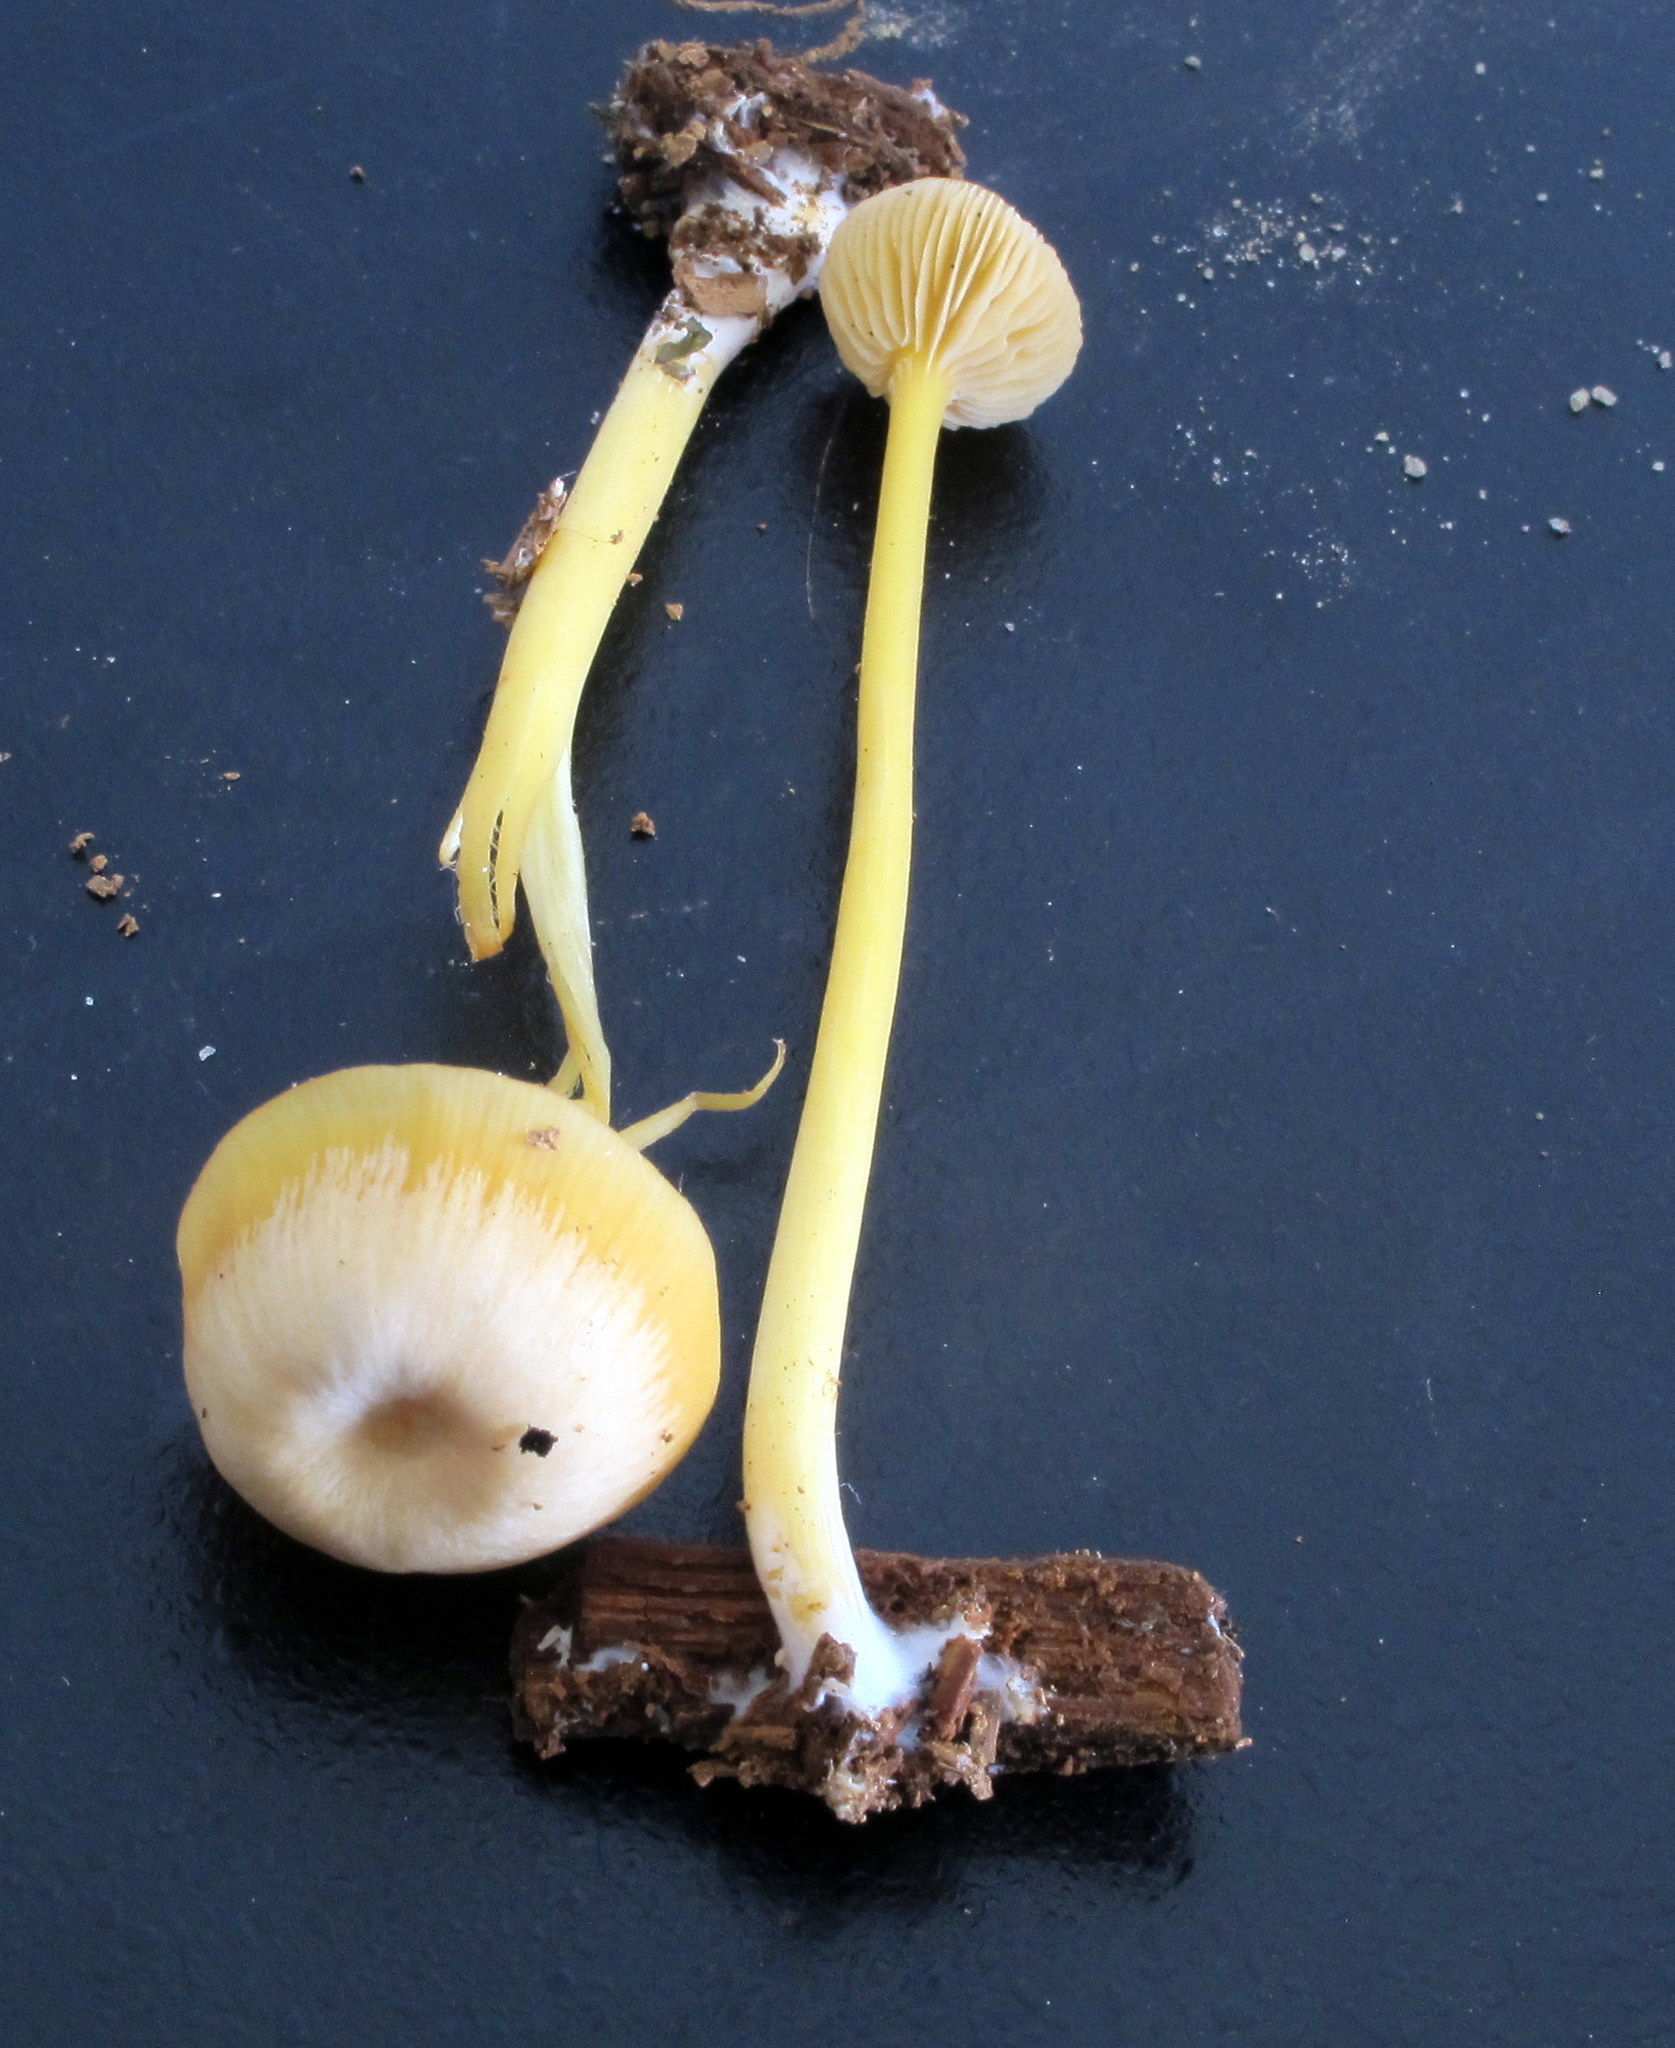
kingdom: Fungi
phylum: Basidiomycota
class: Agaricomycetes
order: Agaricales
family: Entolomataceae
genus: Entoloma
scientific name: Entoloma unicolor
